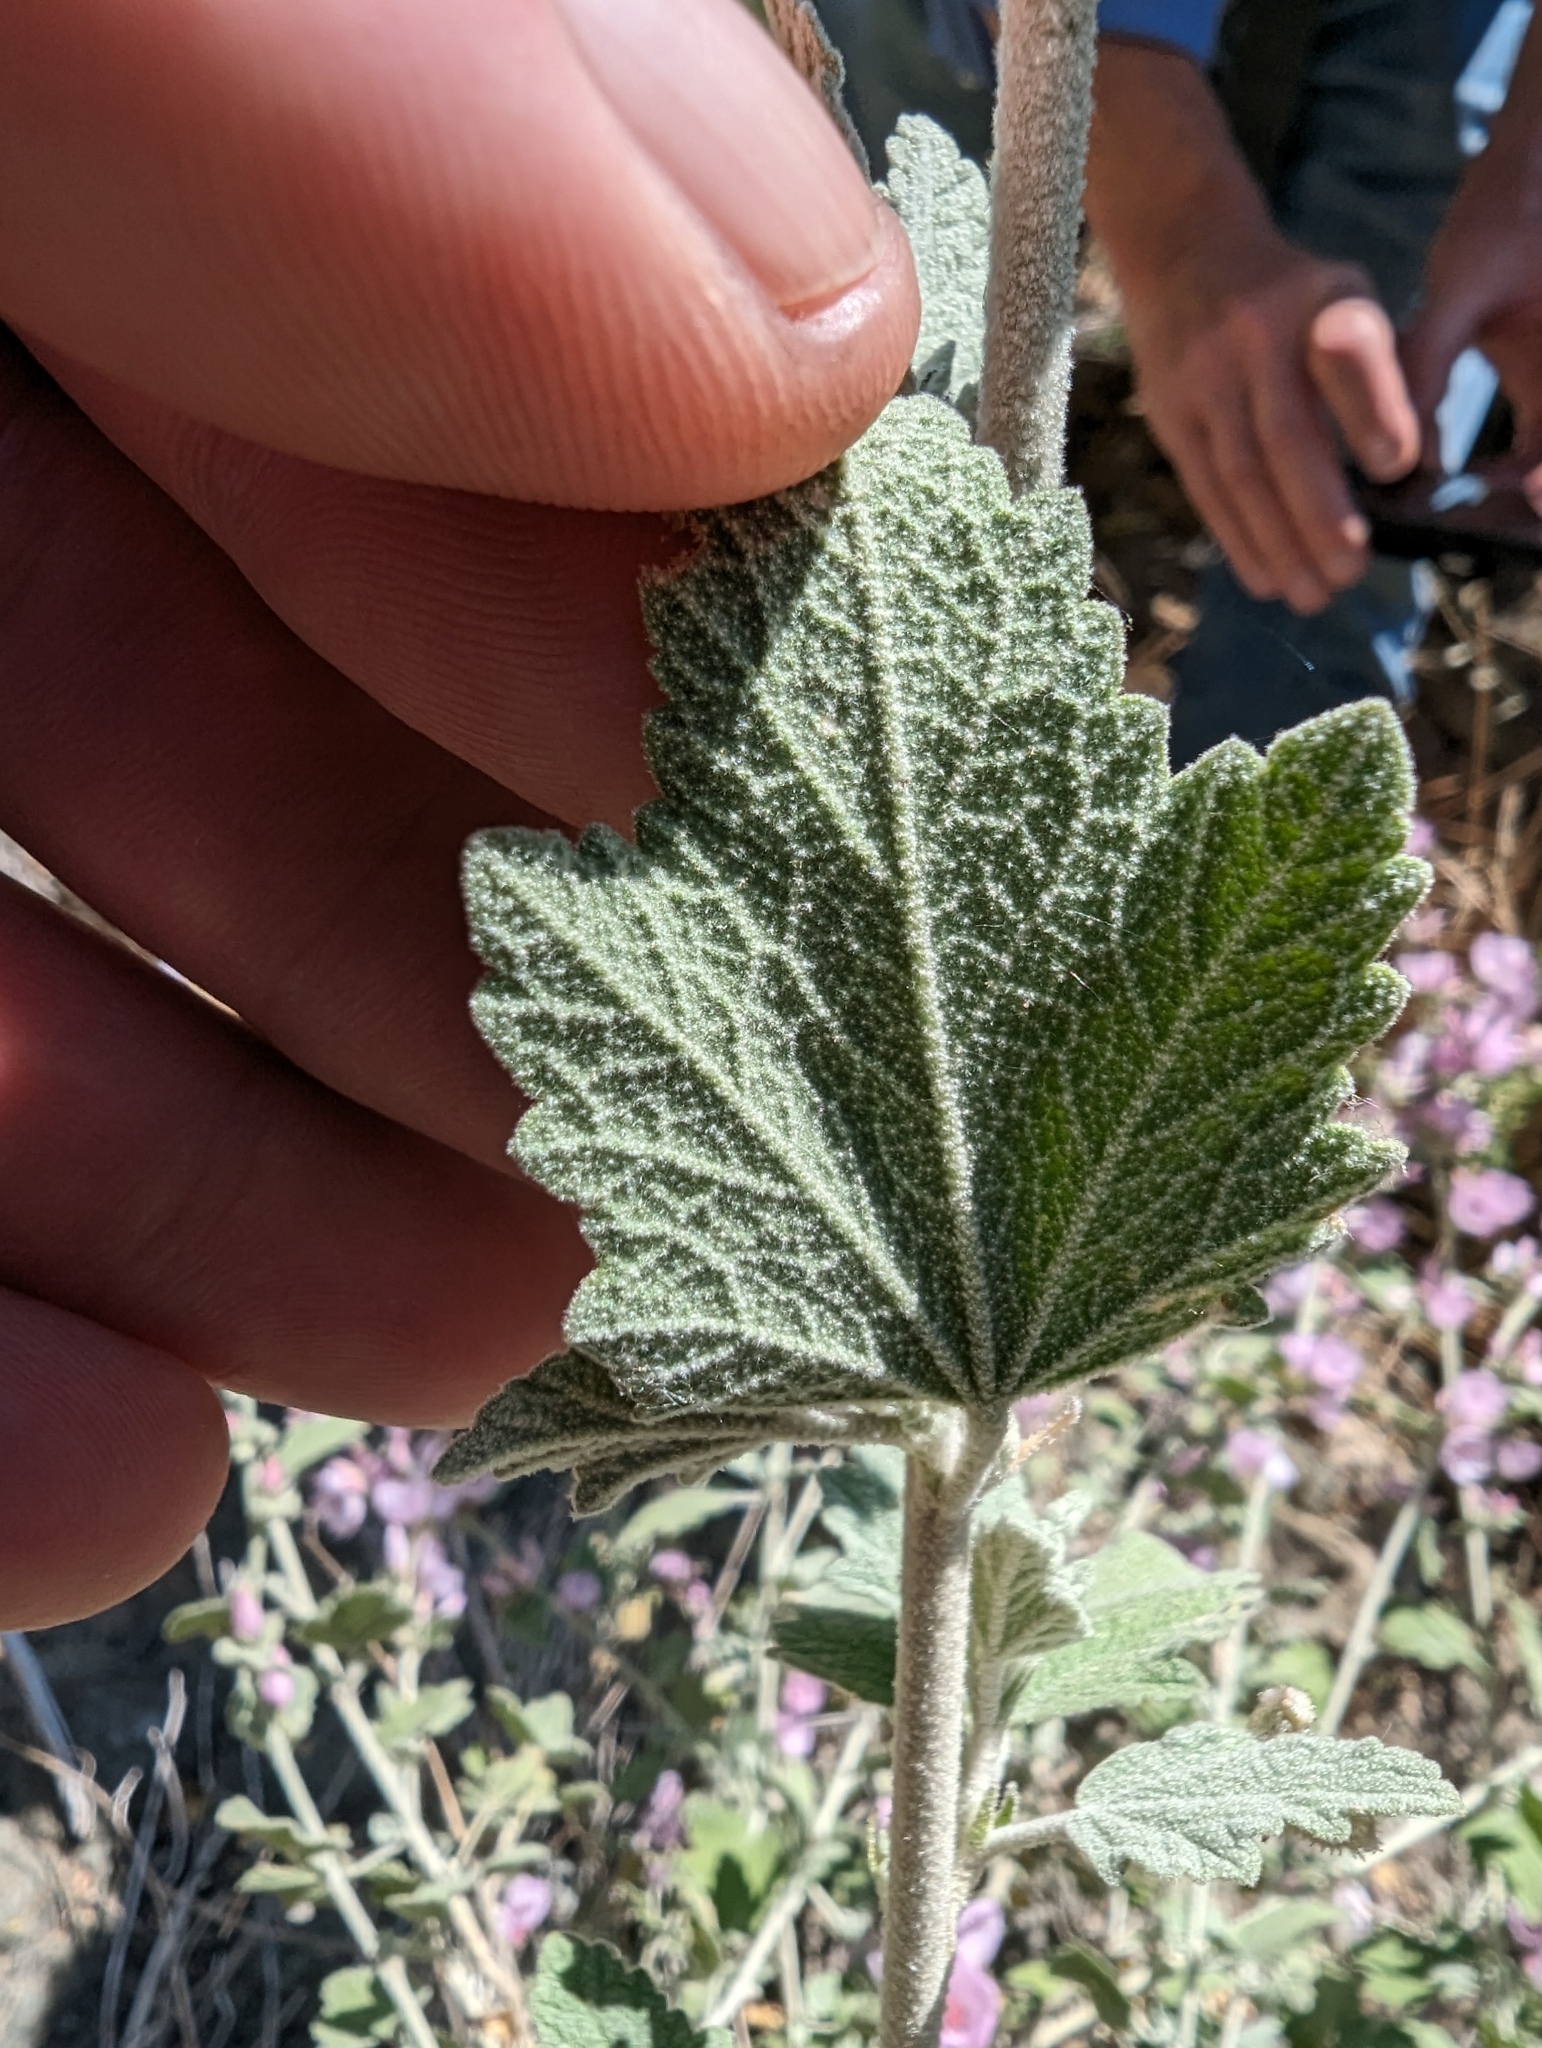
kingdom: Plantae
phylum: Tracheophyta
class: Magnoliopsida
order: Malvales
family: Malvaceae
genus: Malacothamnus
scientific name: Malacothamnus fasciculatus
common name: Sant cruz island bush-mallow
